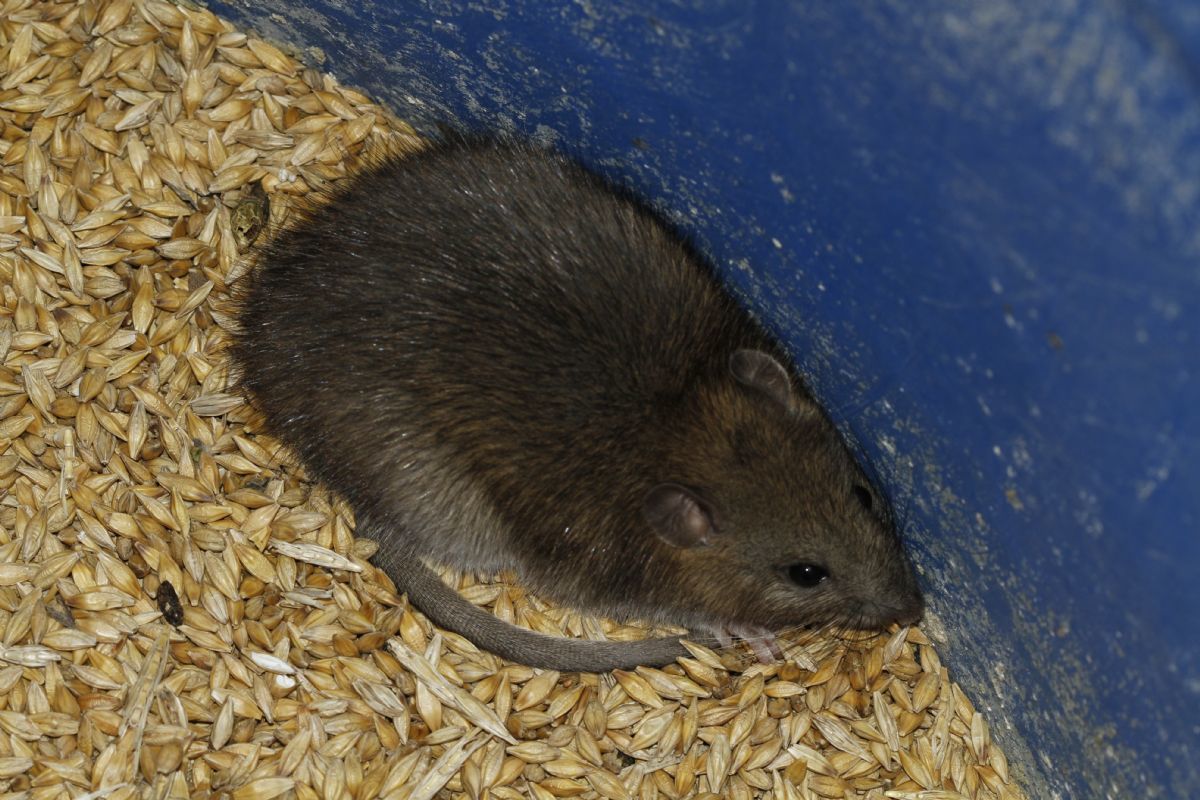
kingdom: Animalia
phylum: Chordata
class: Mammalia
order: Rodentia
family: Muridae
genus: Rattus
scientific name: Rattus norvegicus
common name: Brown rat
